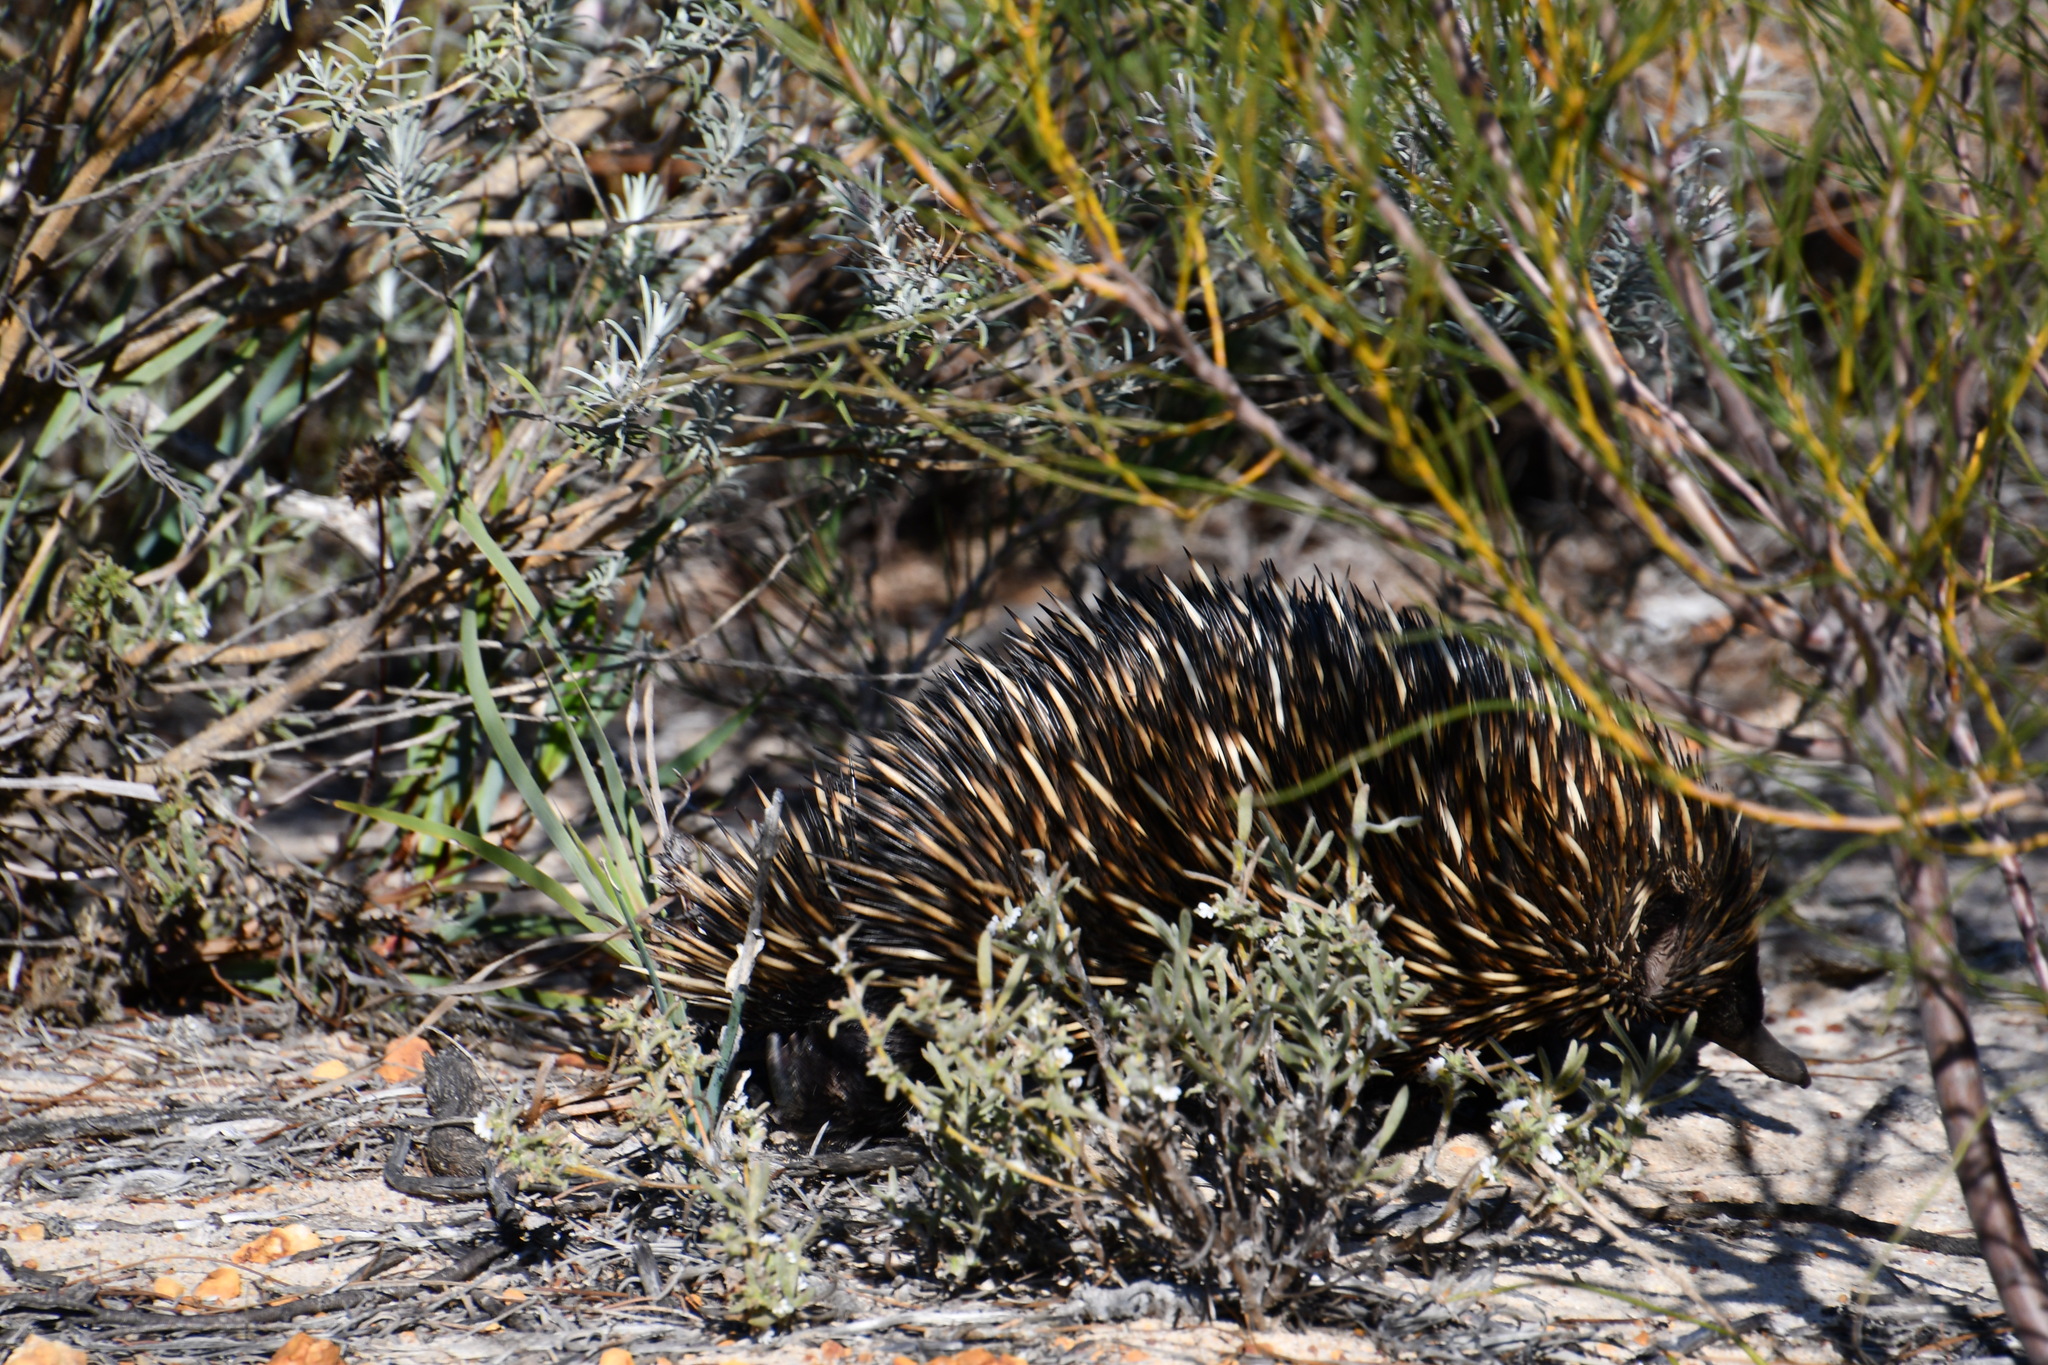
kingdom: Animalia
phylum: Chordata
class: Mammalia
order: Monotremata
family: Tachyglossidae
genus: Tachyglossus
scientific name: Tachyglossus aculeatus
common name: Short-beaked echidna
